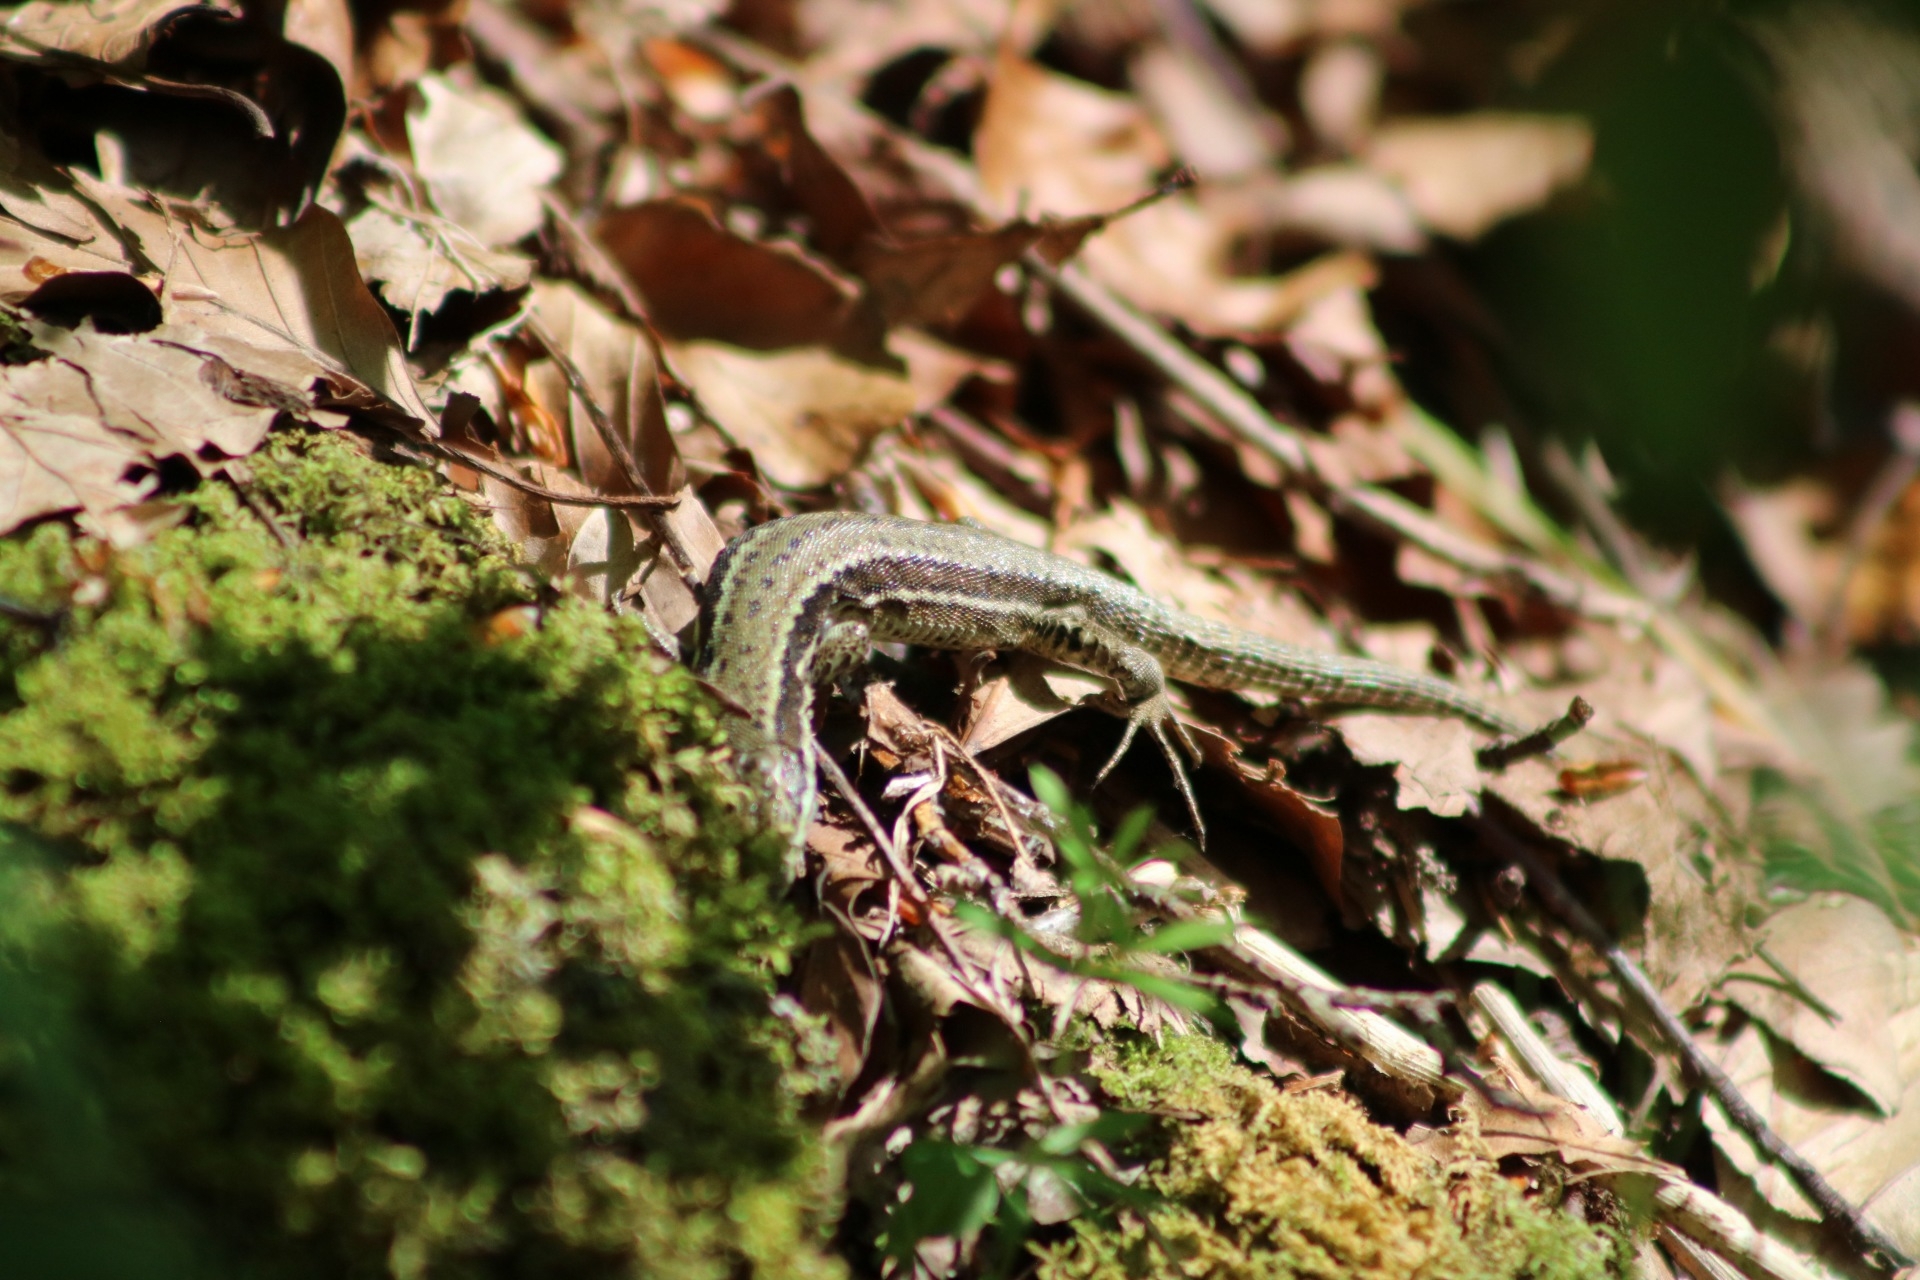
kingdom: Animalia
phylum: Chordata
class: Squamata
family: Lacertidae
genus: Podarcis
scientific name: Podarcis muralis
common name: Common wall lizard
